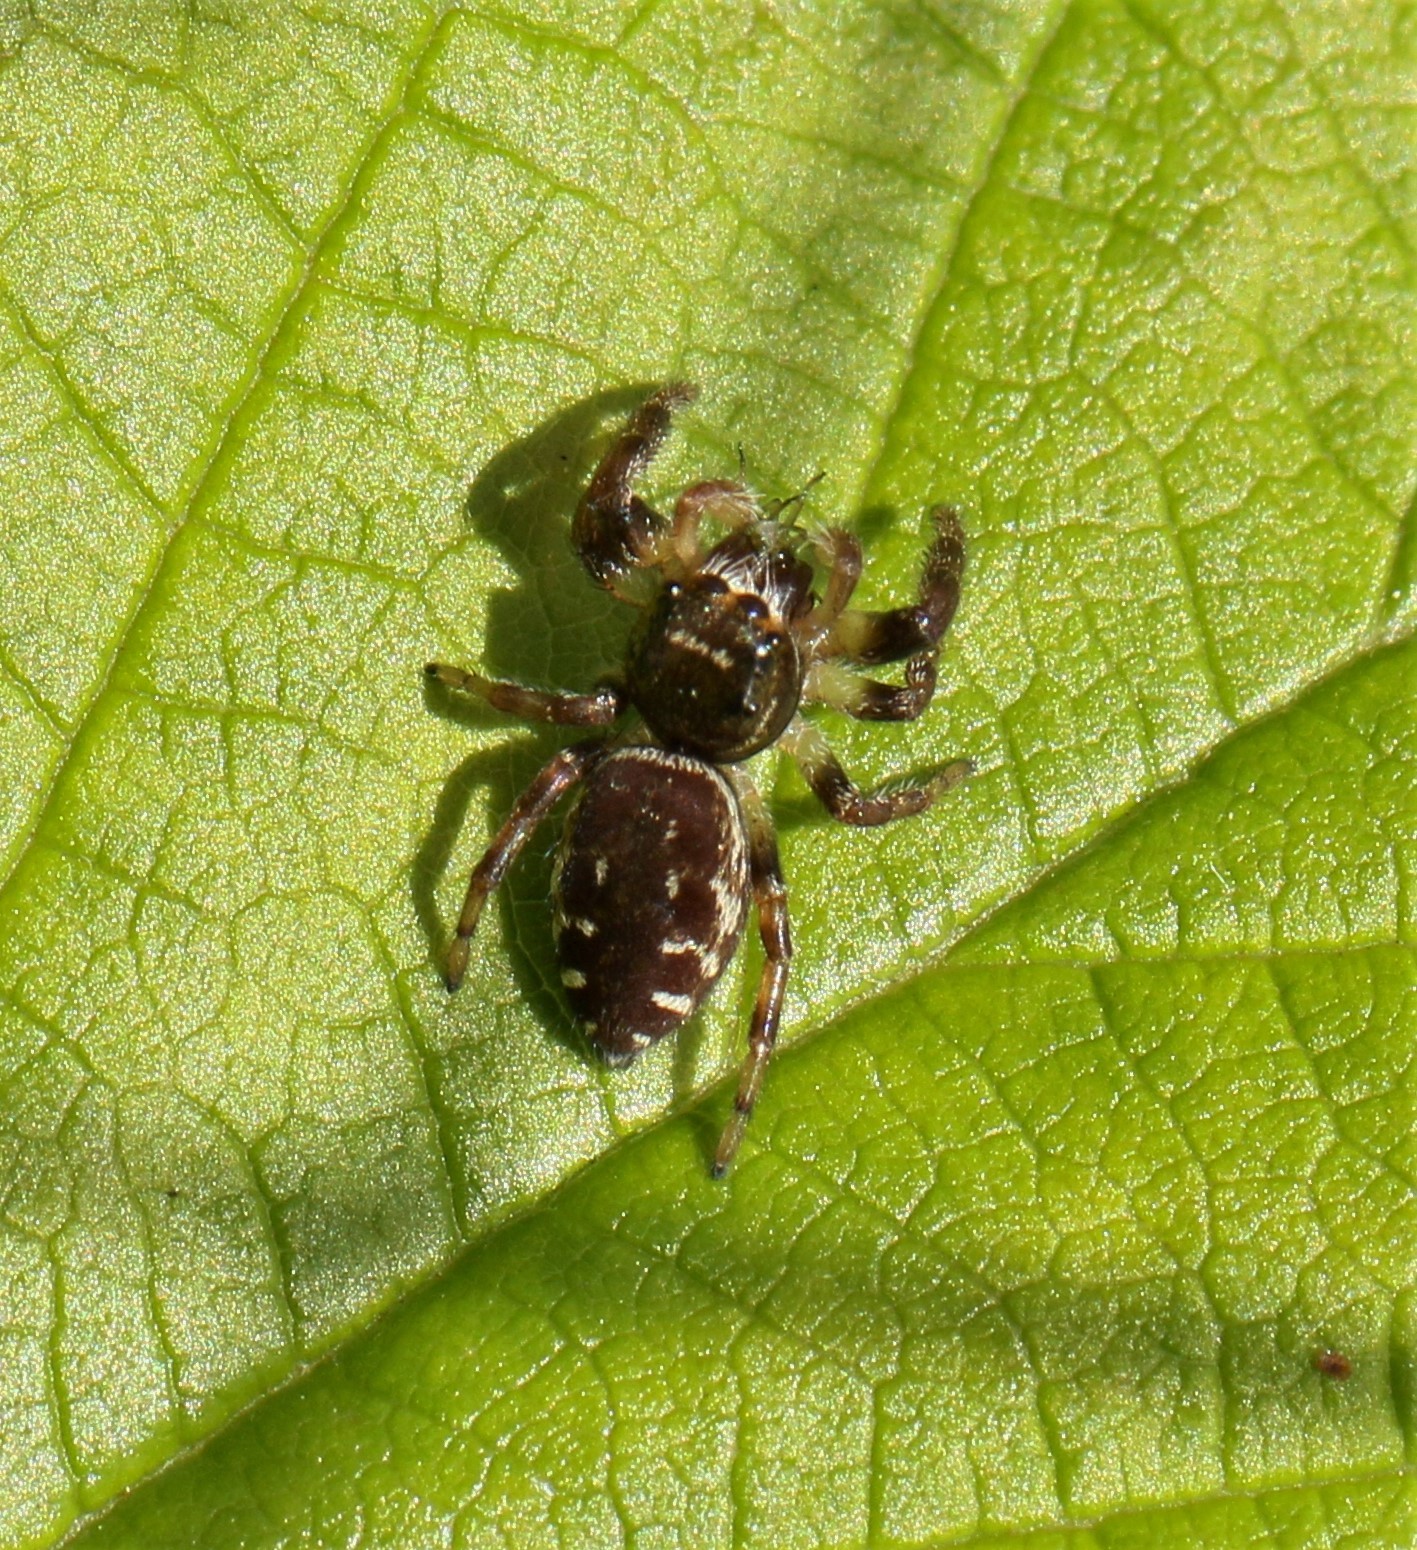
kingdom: Animalia
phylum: Arthropoda
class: Arachnida
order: Araneae
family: Salticidae
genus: Eris
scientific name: Eris militaris
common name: Bronze jumper
